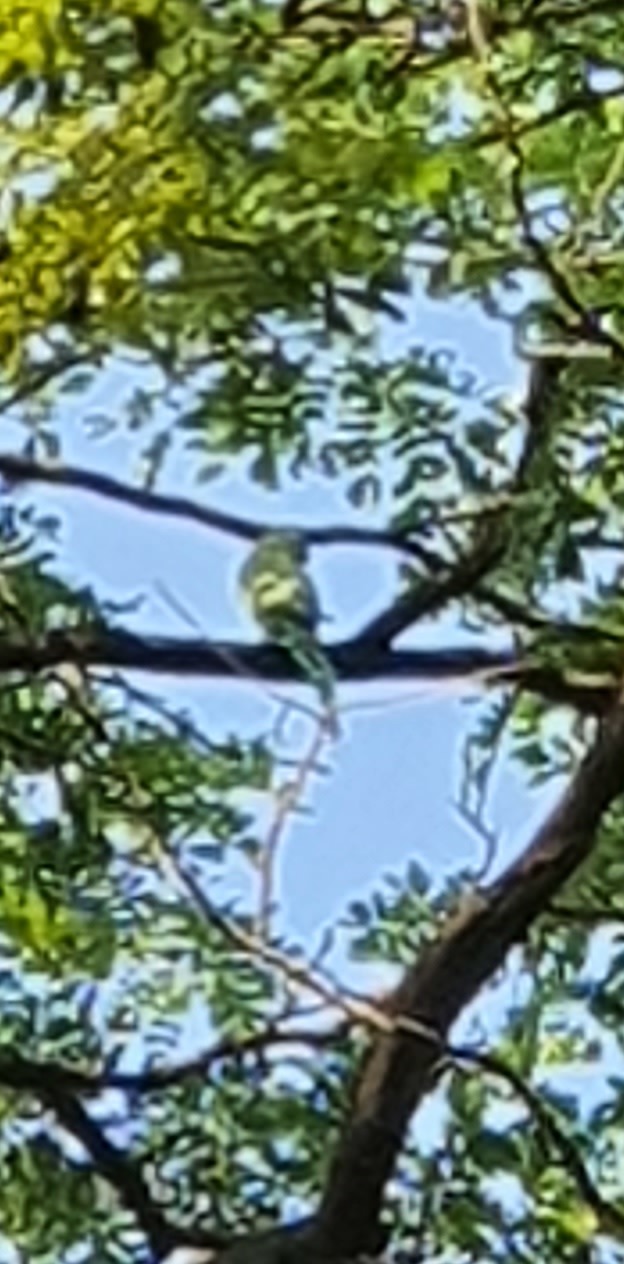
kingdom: Animalia
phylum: Chordata
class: Aves
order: Psittaciformes
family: Psittacidae
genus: Psittacula
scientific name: Psittacula krameri
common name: Rose-ringed parakeet
